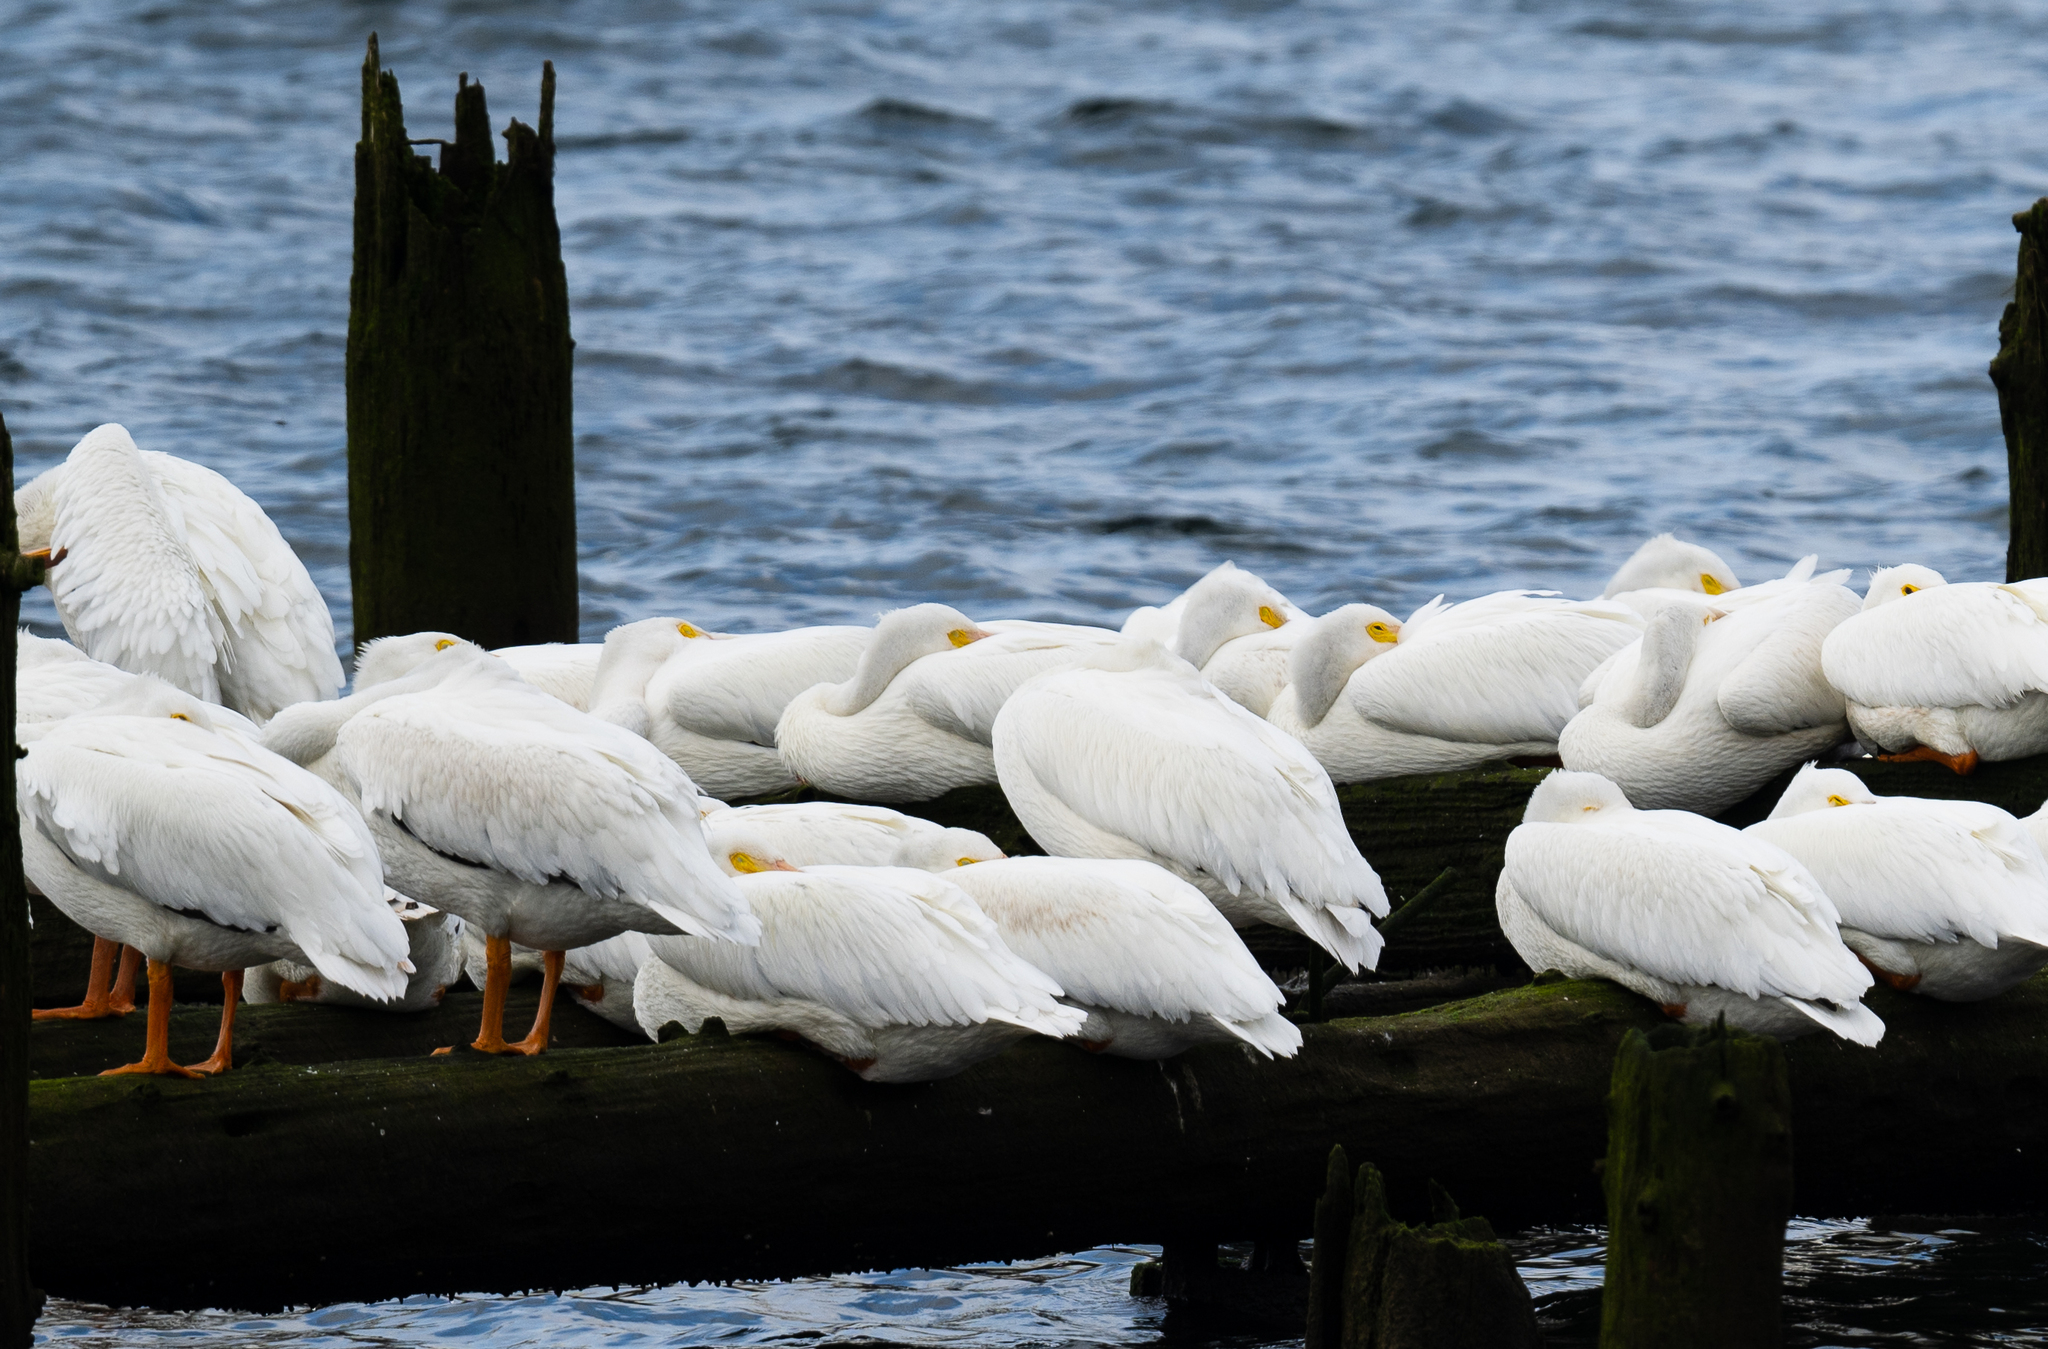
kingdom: Animalia
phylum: Chordata
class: Aves
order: Pelecaniformes
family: Pelecanidae
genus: Pelecanus
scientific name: Pelecanus erythrorhynchos
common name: American white pelican
